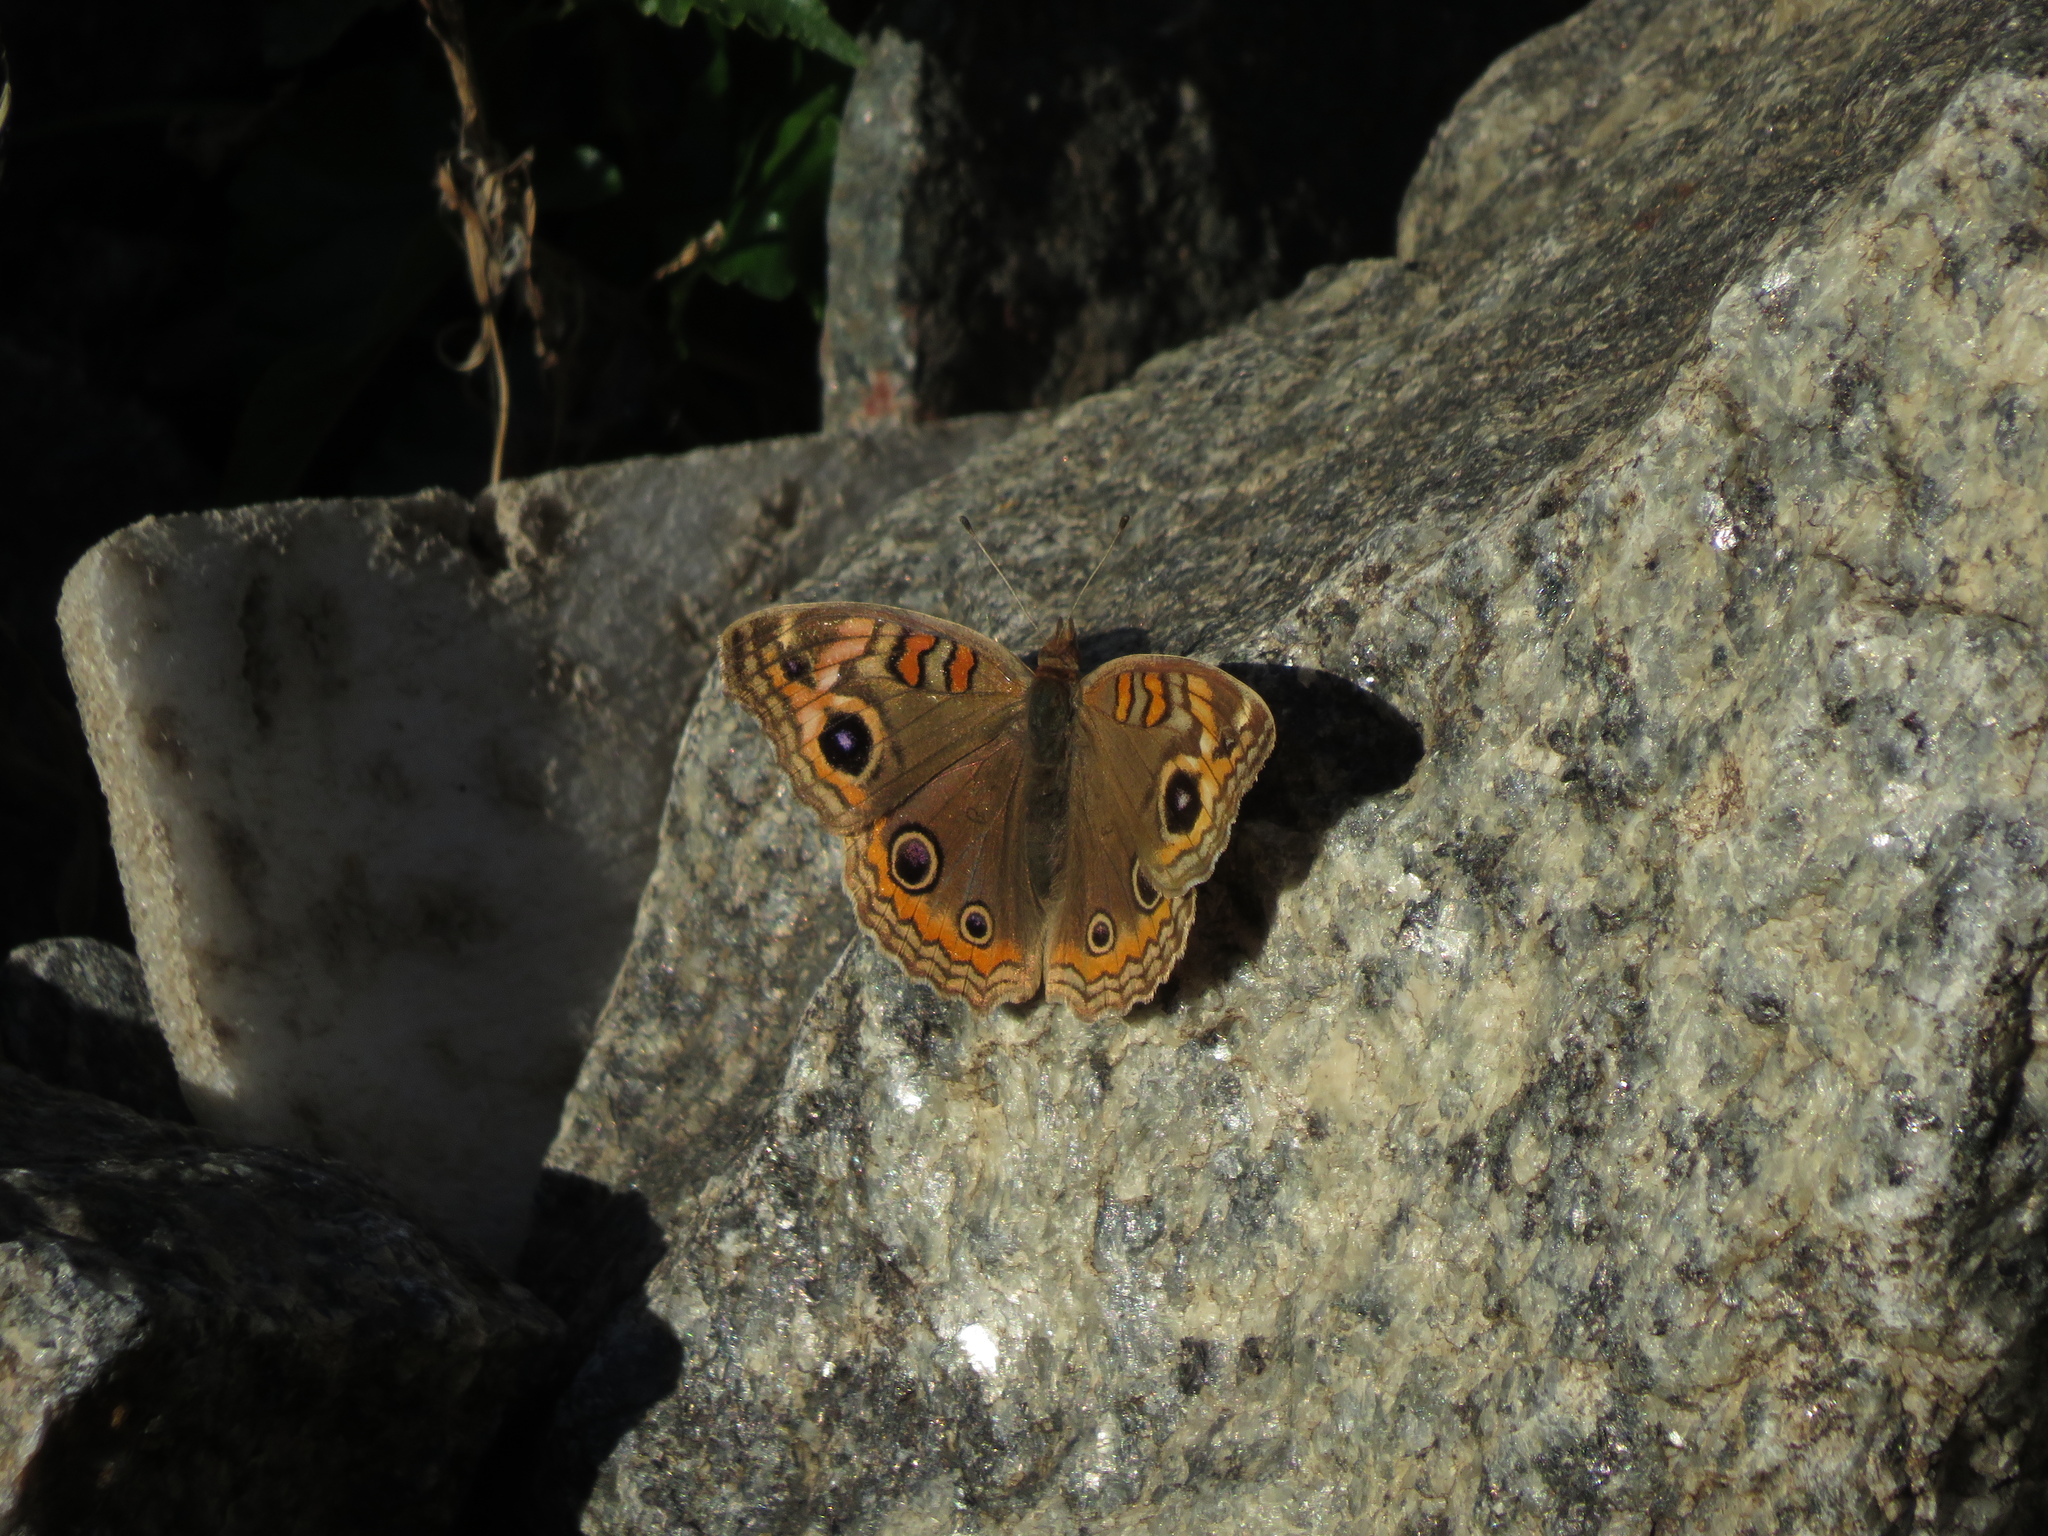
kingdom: Animalia
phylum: Arthropoda
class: Insecta
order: Lepidoptera
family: Nymphalidae
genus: Junonia
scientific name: Junonia lavinia
